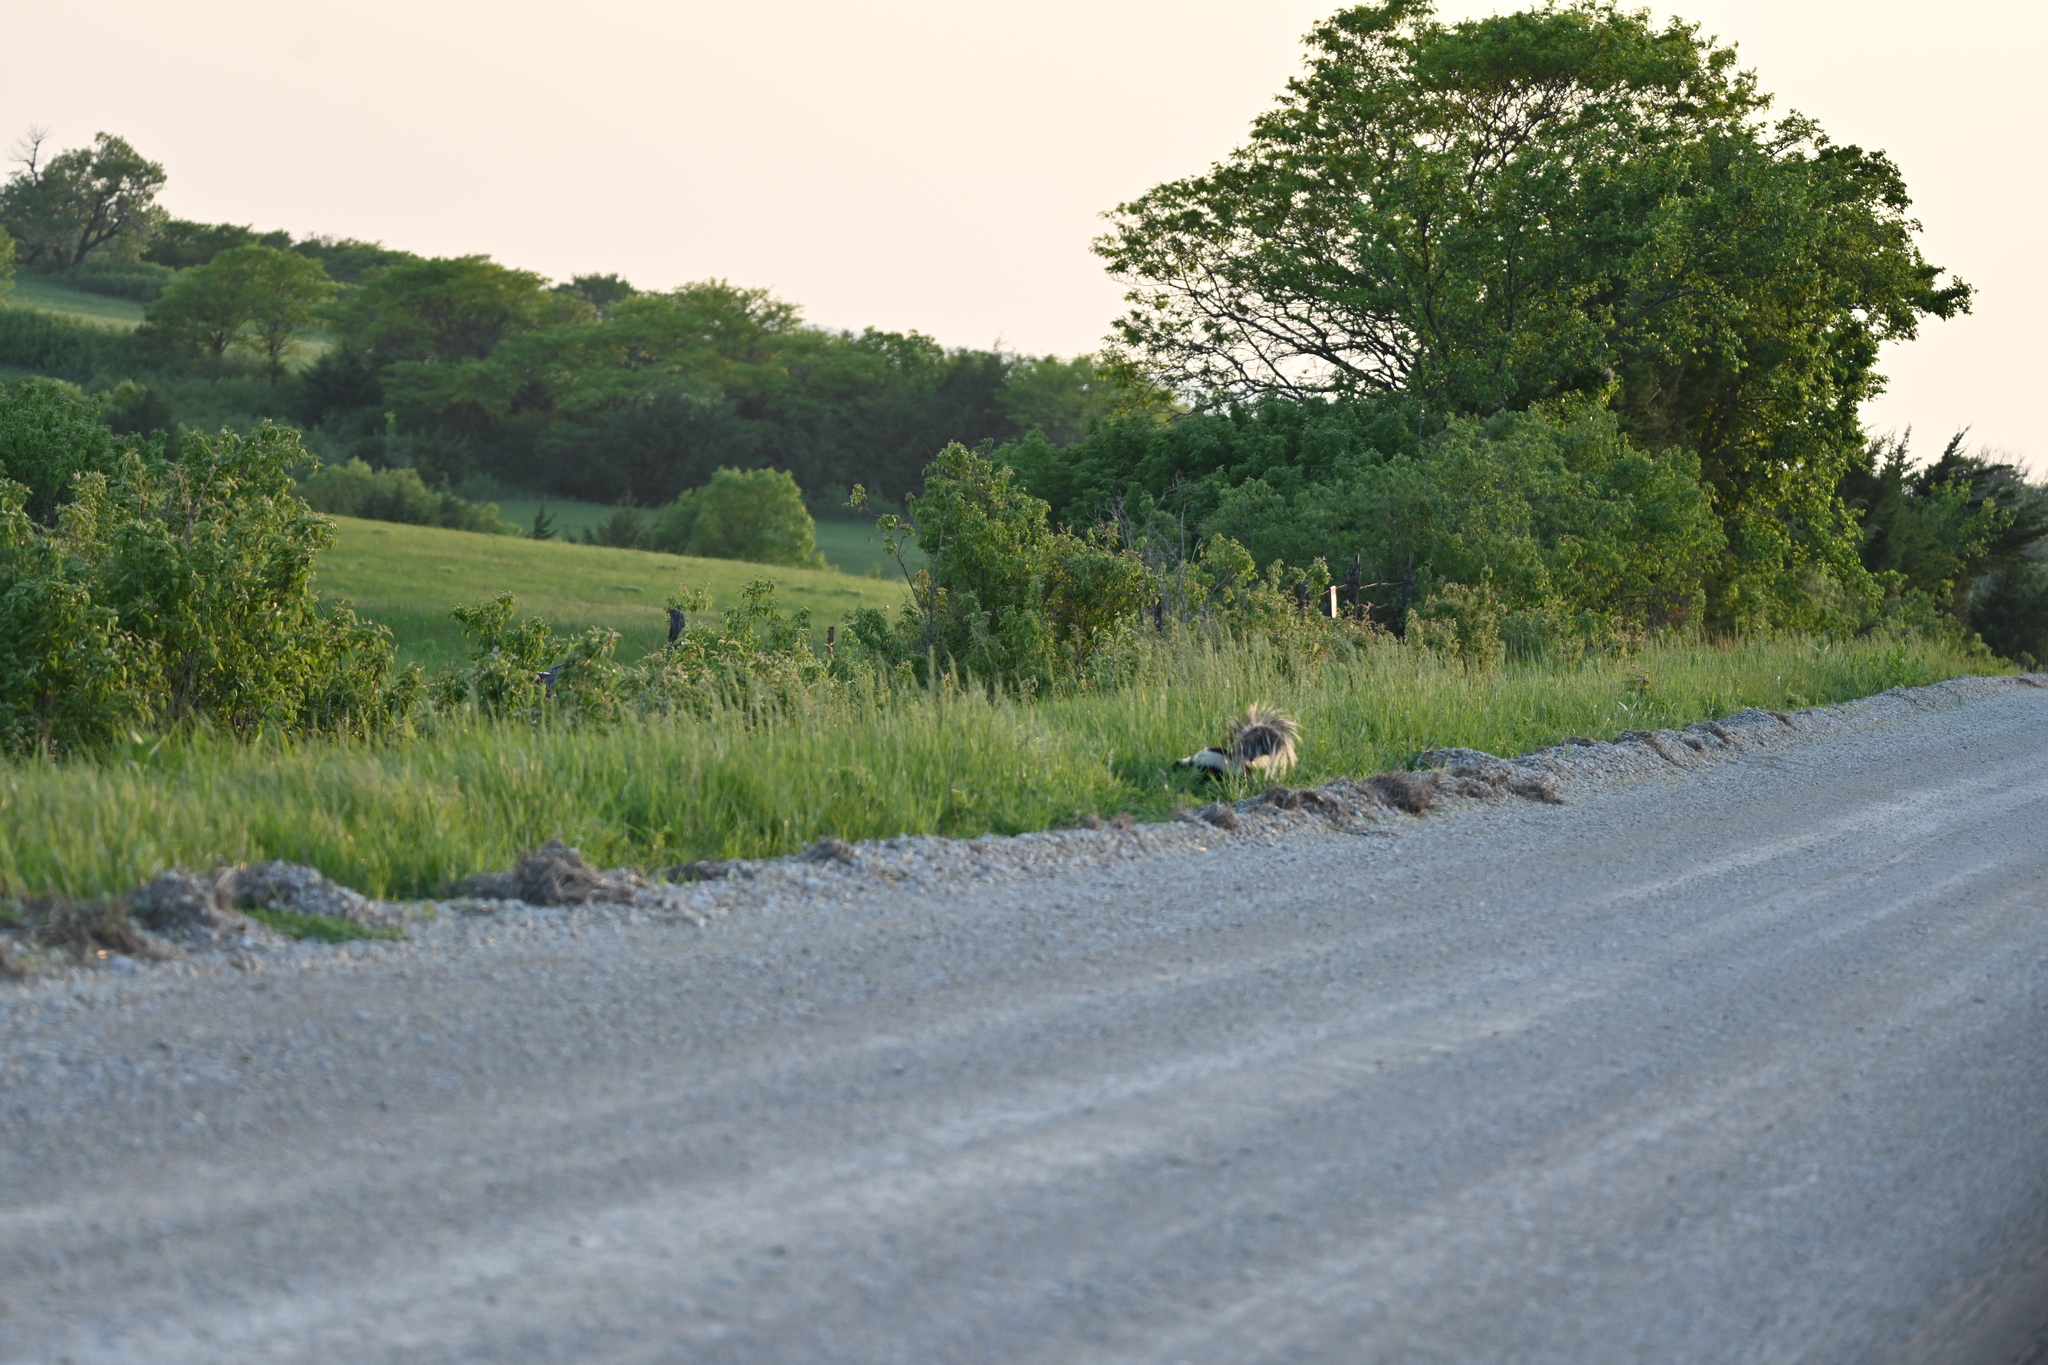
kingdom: Animalia
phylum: Chordata
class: Mammalia
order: Carnivora
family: Mephitidae
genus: Mephitis
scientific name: Mephitis mephitis
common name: Striped skunk
